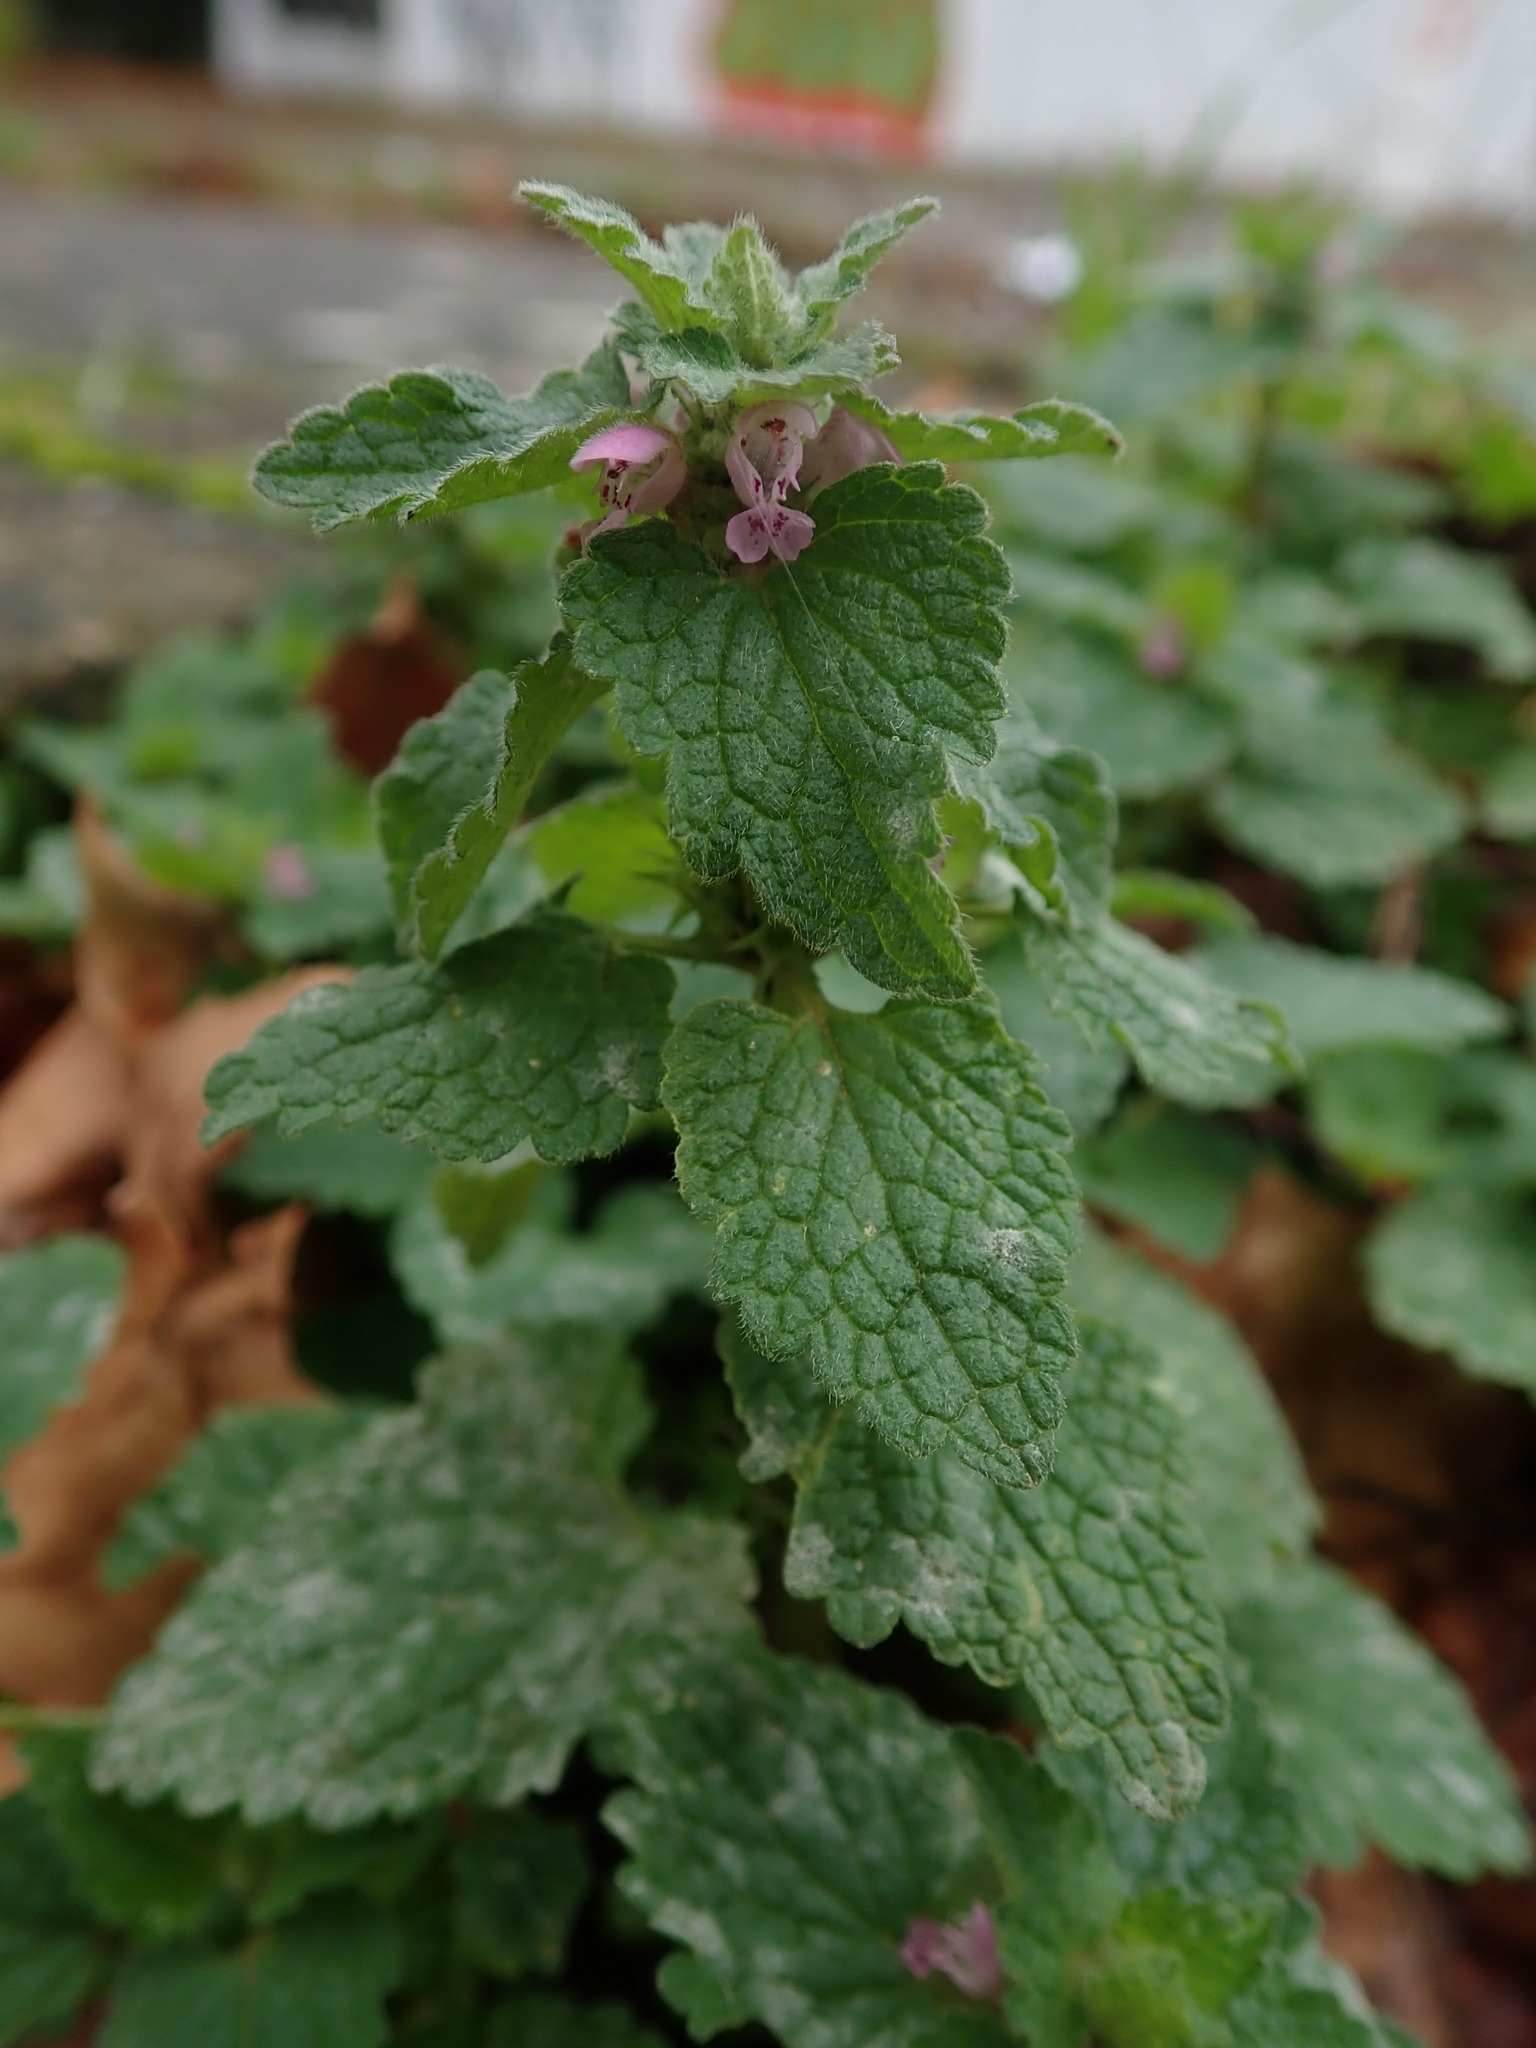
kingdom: Plantae
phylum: Tracheophyta
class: Magnoliopsida
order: Lamiales
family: Lamiaceae
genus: Lamium
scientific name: Lamium purpureum
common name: Red dead-nettle
